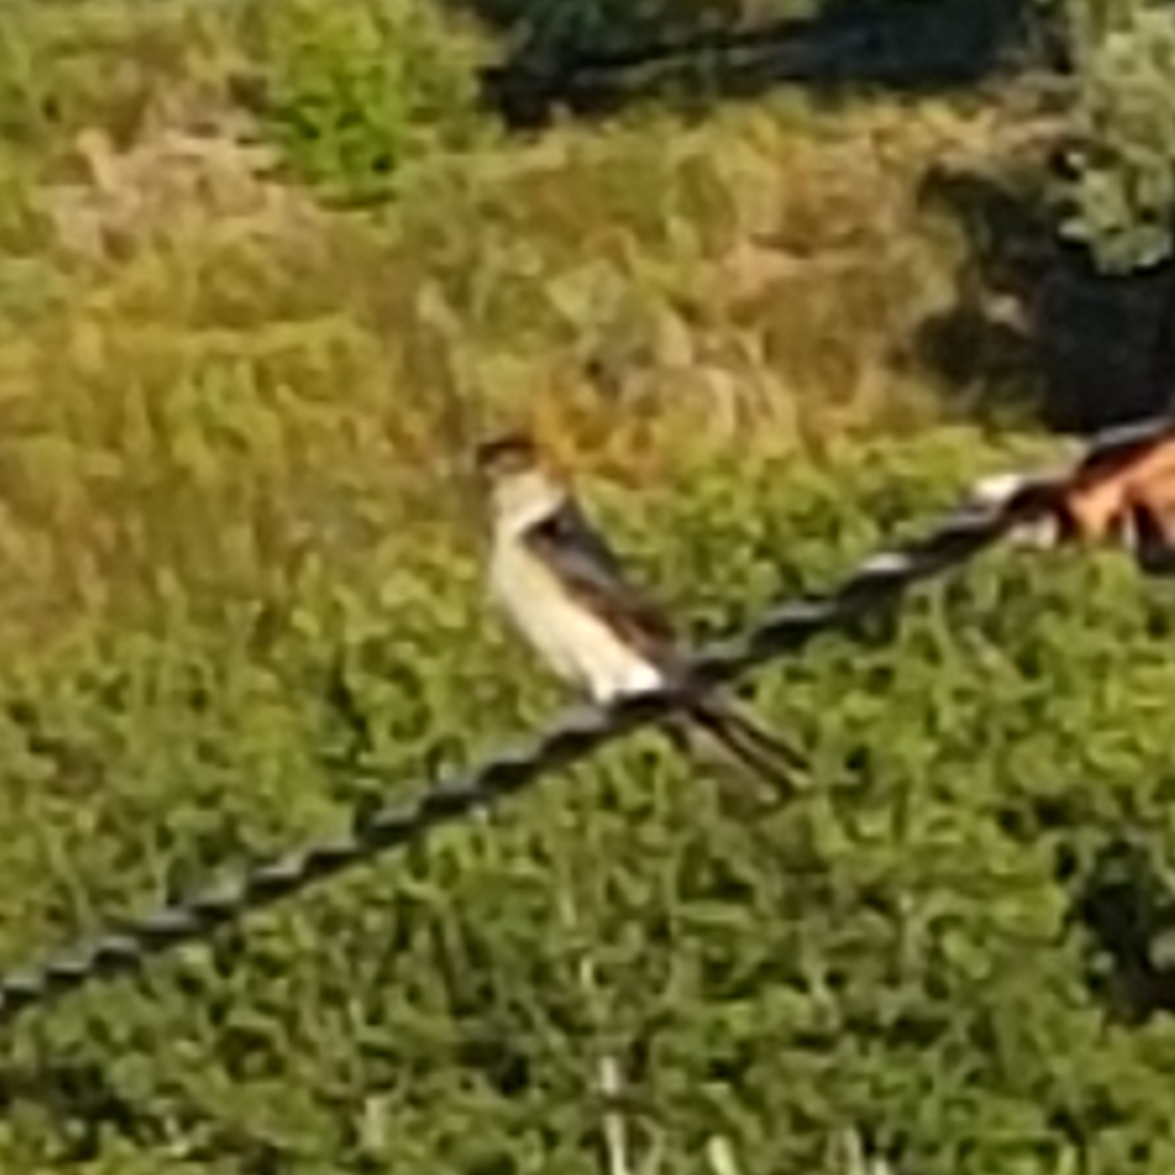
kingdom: Animalia
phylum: Chordata
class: Aves
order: Passeriformes
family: Hirundinidae
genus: Cecropis
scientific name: Cecropis daurica
